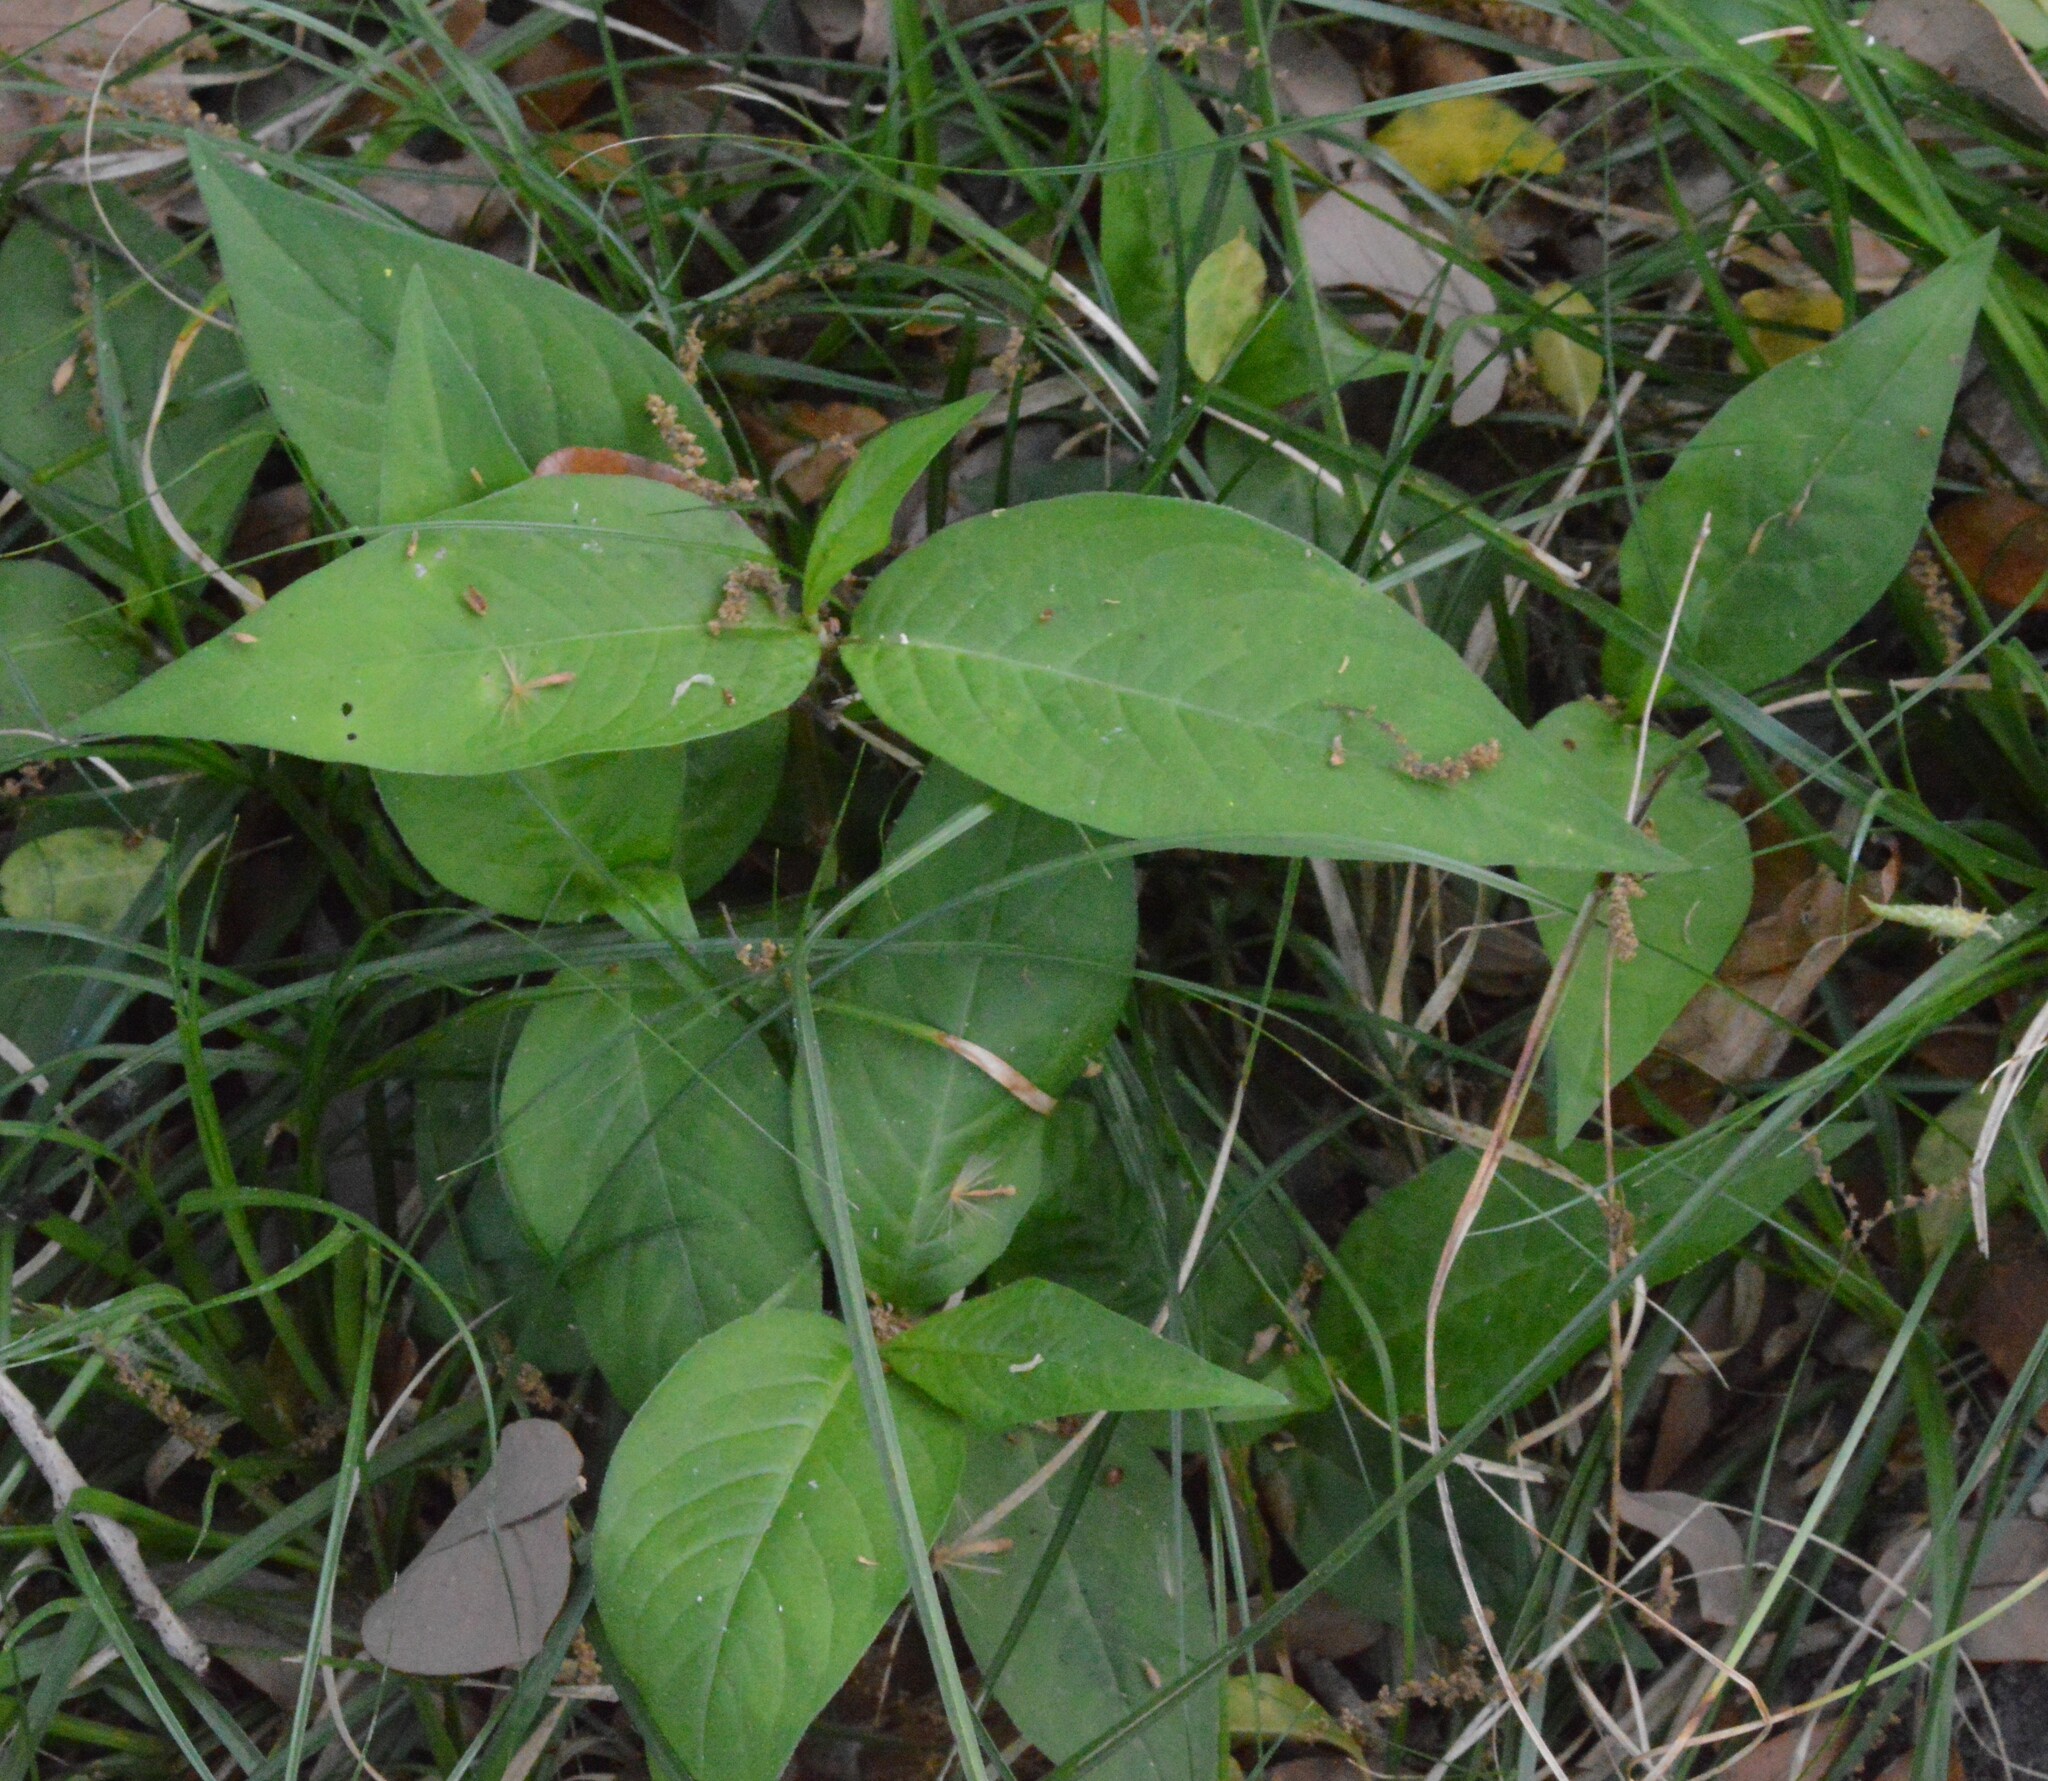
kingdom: Plantae
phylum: Tracheophyta
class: Magnoliopsida
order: Caryophyllales
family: Polygonaceae
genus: Persicaria
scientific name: Persicaria virginiana
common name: Jumpseed
